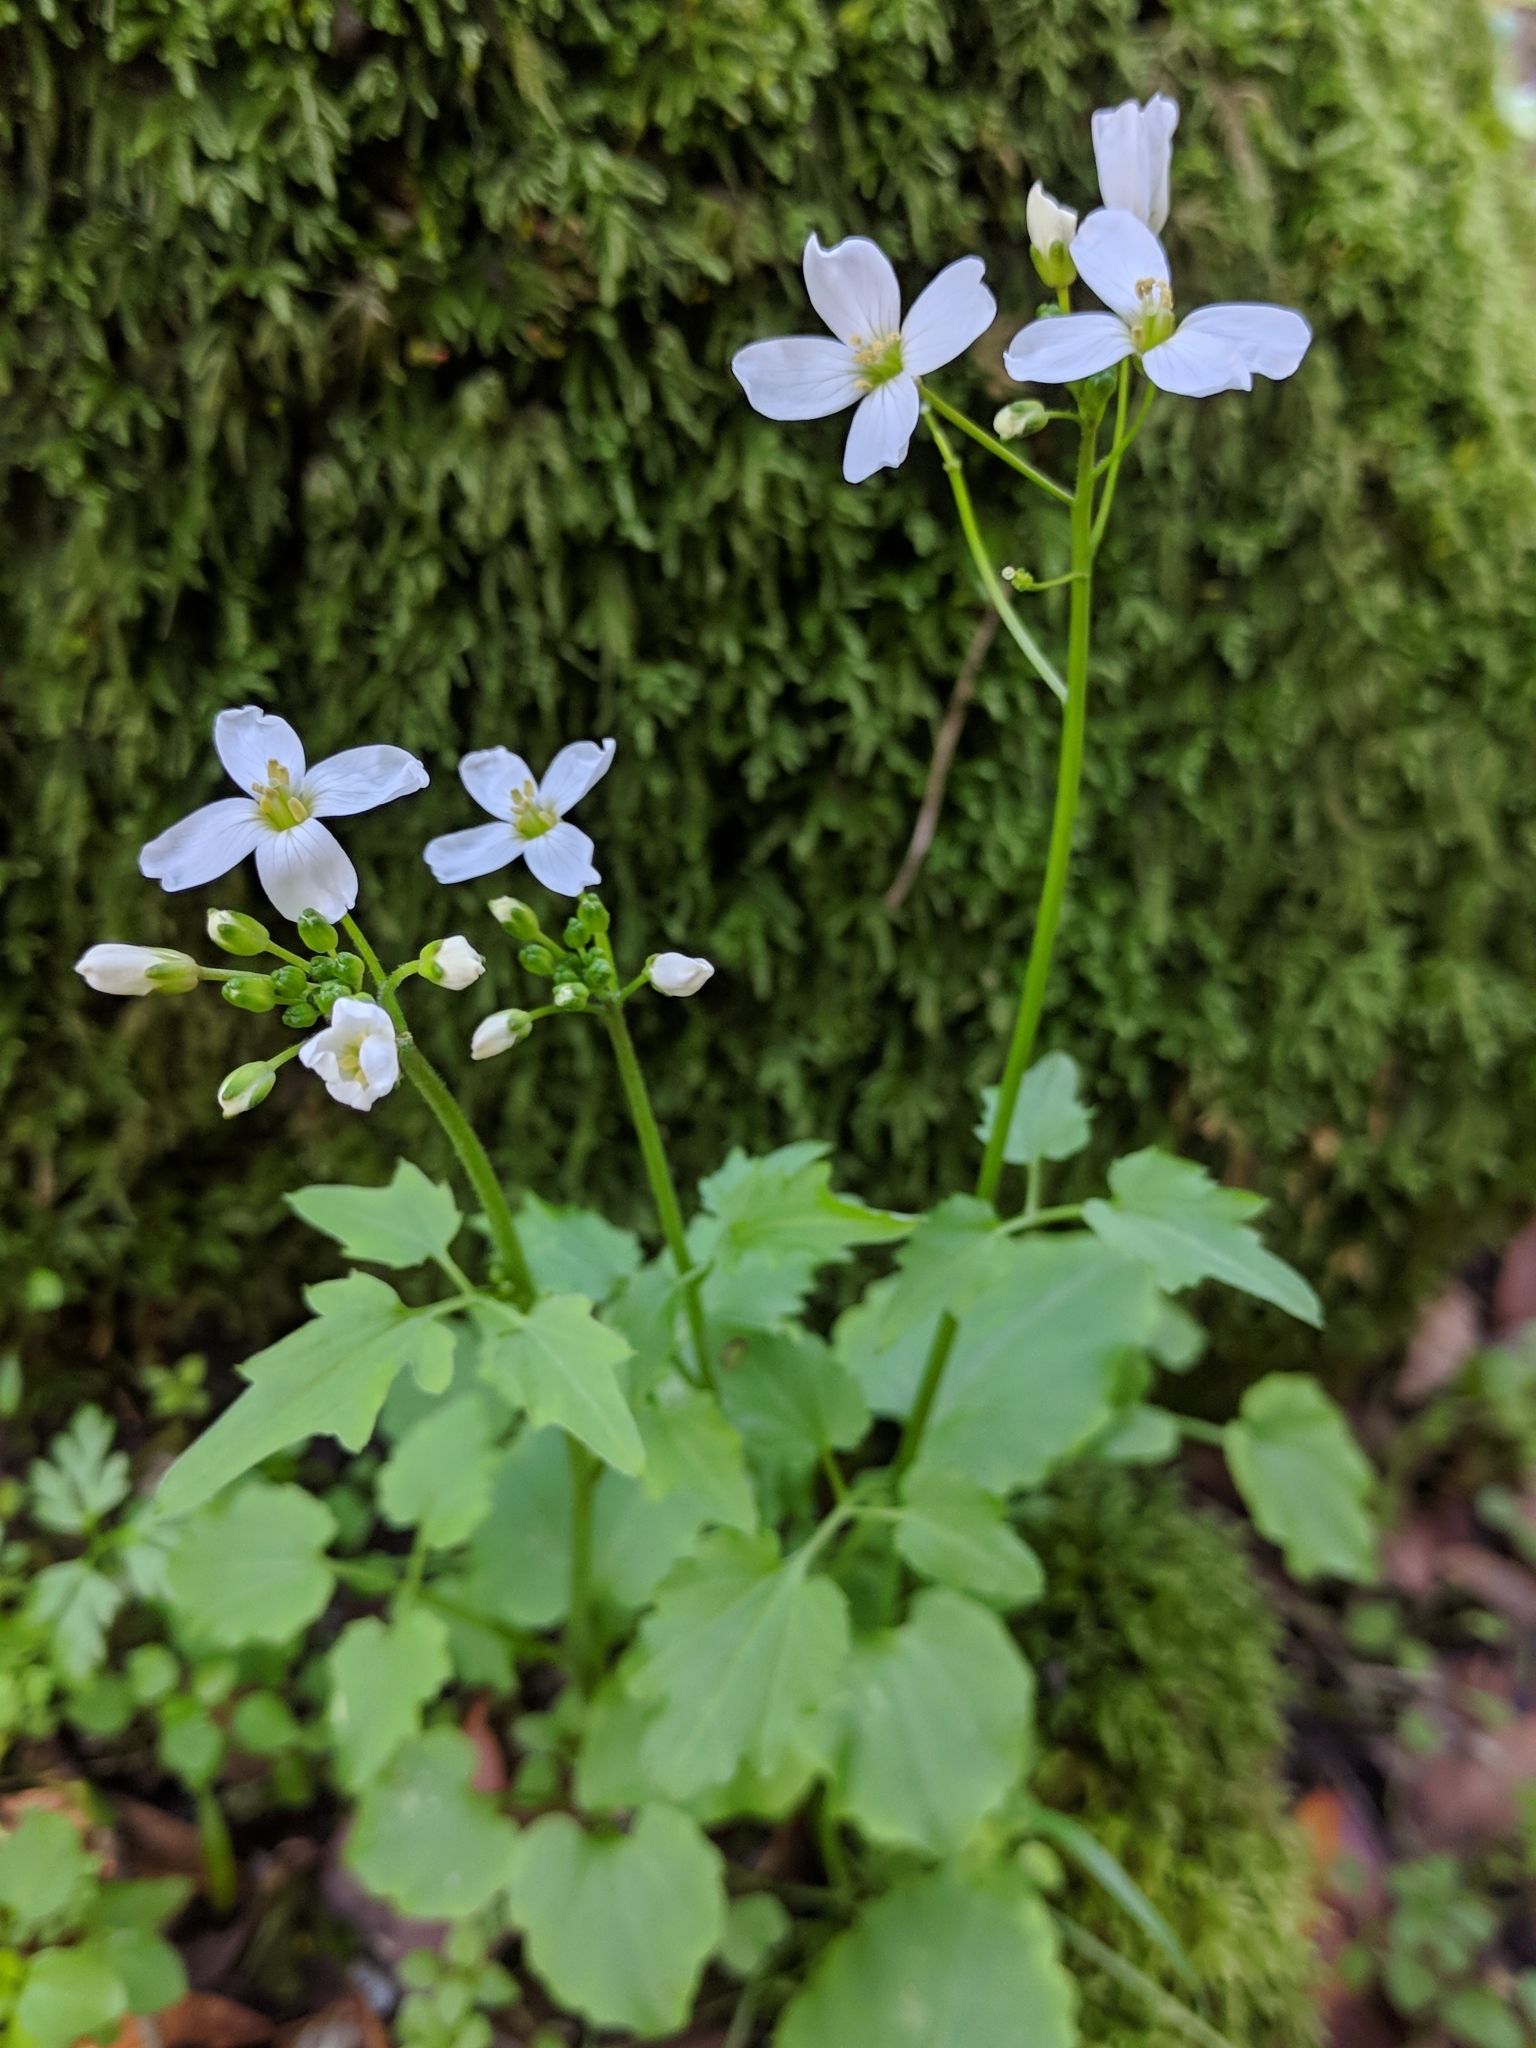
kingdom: Plantae
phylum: Tracheophyta
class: Magnoliopsida
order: Brassicales
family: Brassicaceae
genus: Cardamine
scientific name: Cardamine californica
